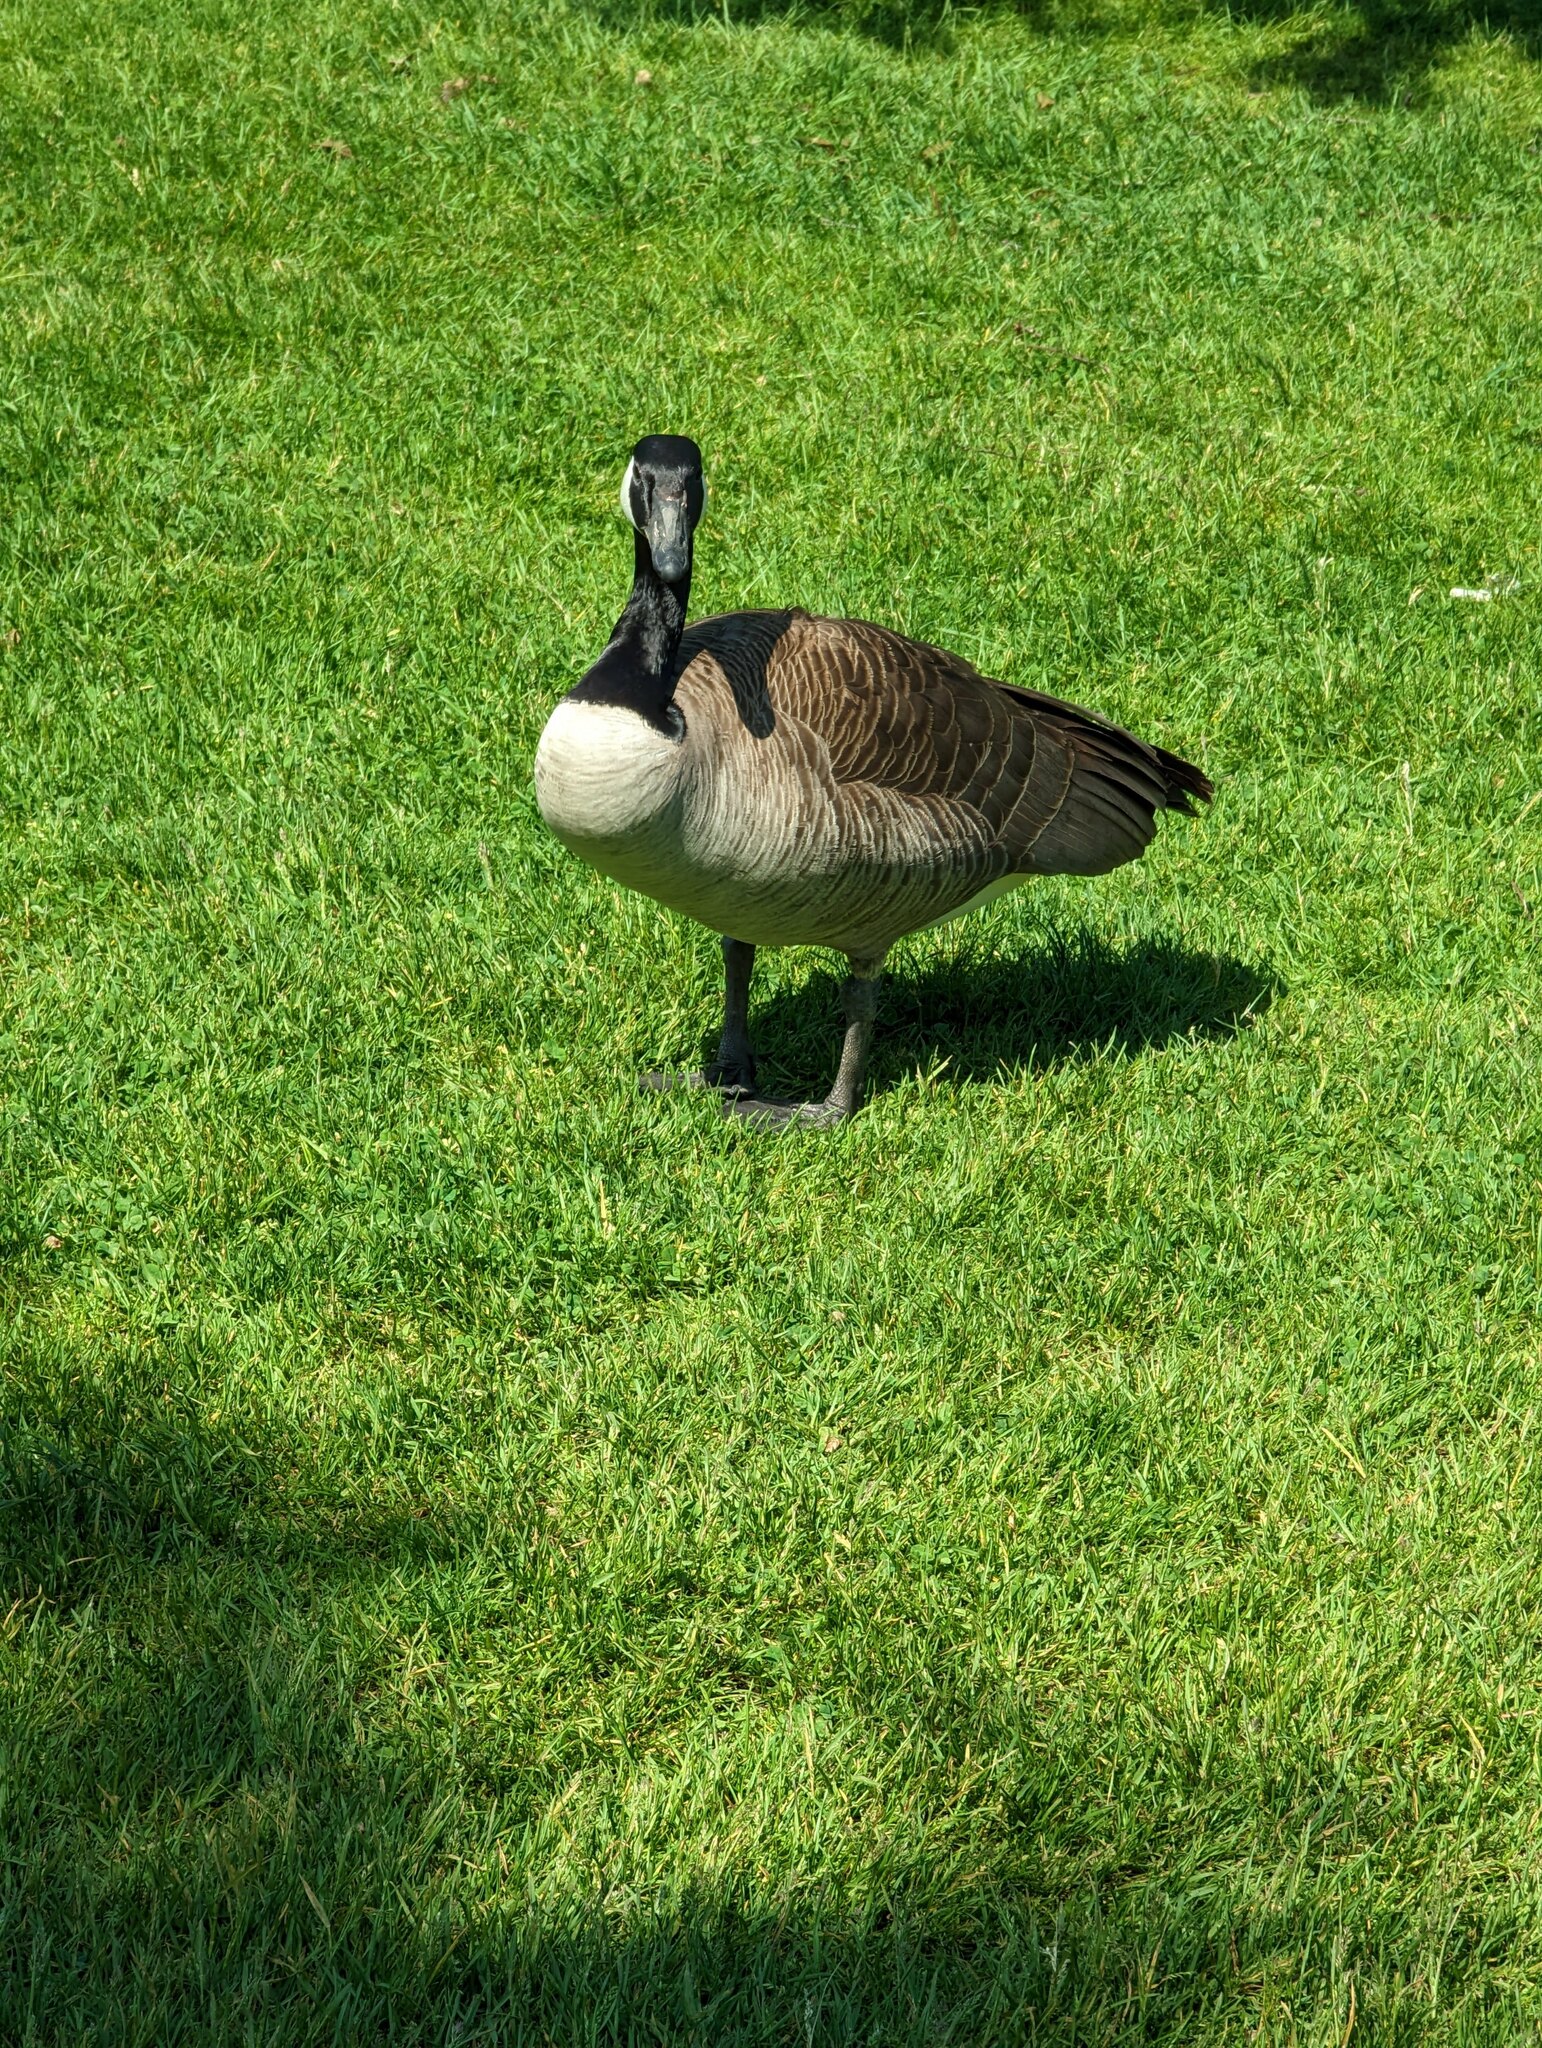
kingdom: Animalia
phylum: Chordata
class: Aves
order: Anseriformes
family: Anatidae
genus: Branta
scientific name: Branta canadensis
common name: Canada goose
